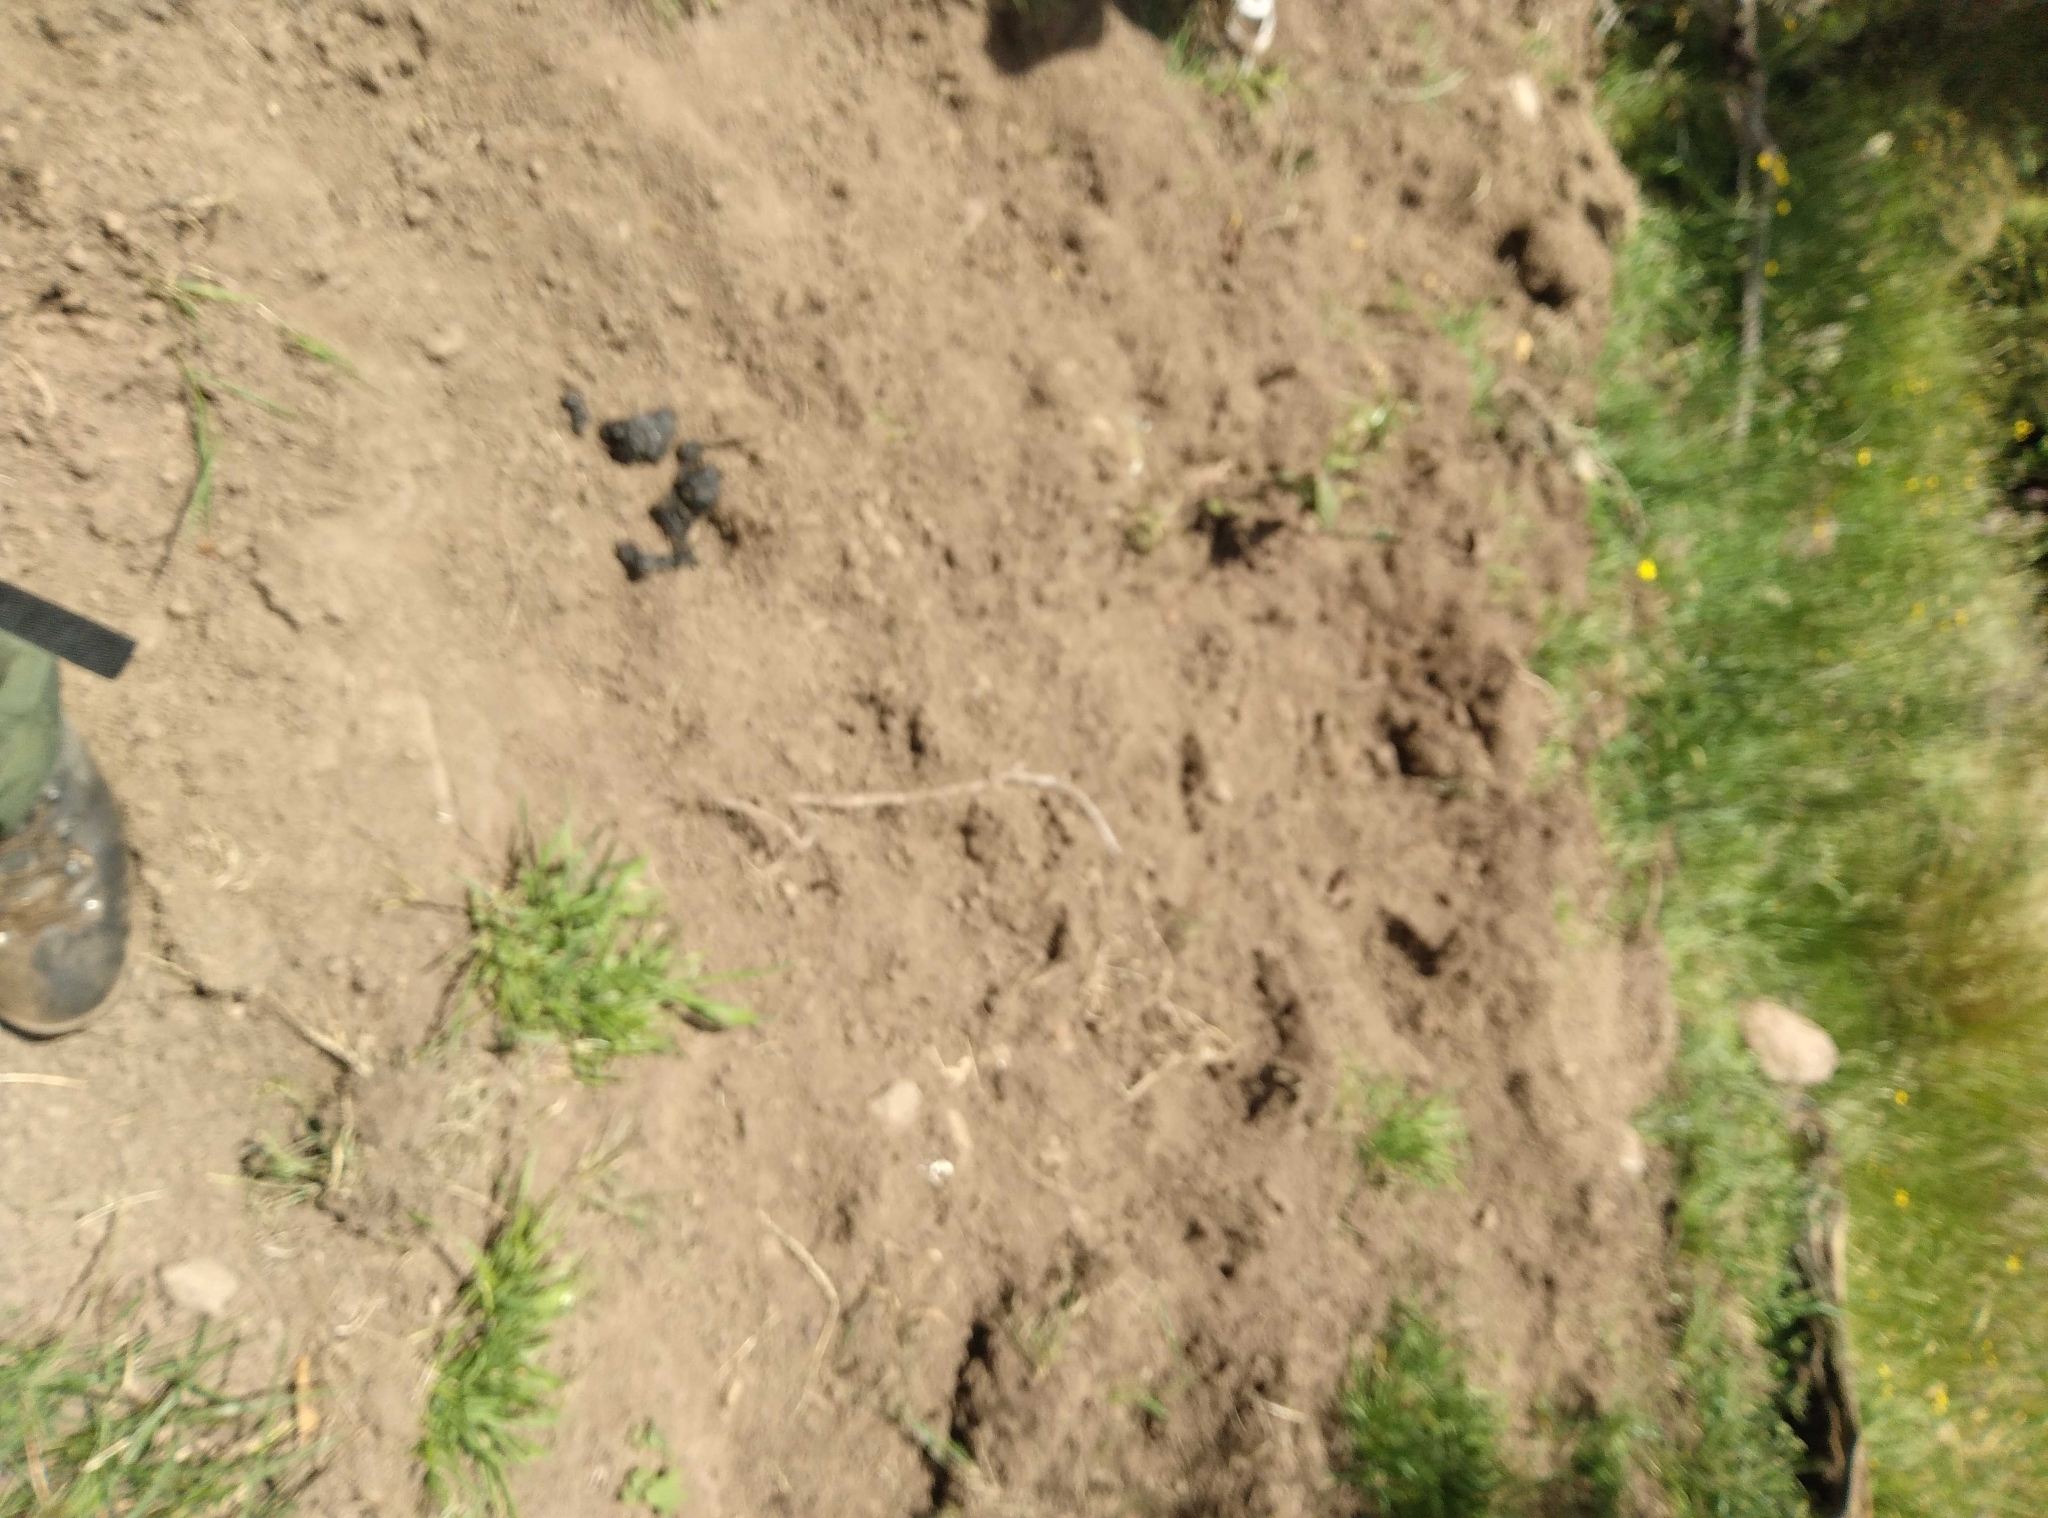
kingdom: Animalia
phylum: Chordata
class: Mammalia
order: Artiodactyla
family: Suidae
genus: Sus
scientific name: Sus scrofa
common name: Wild boar
